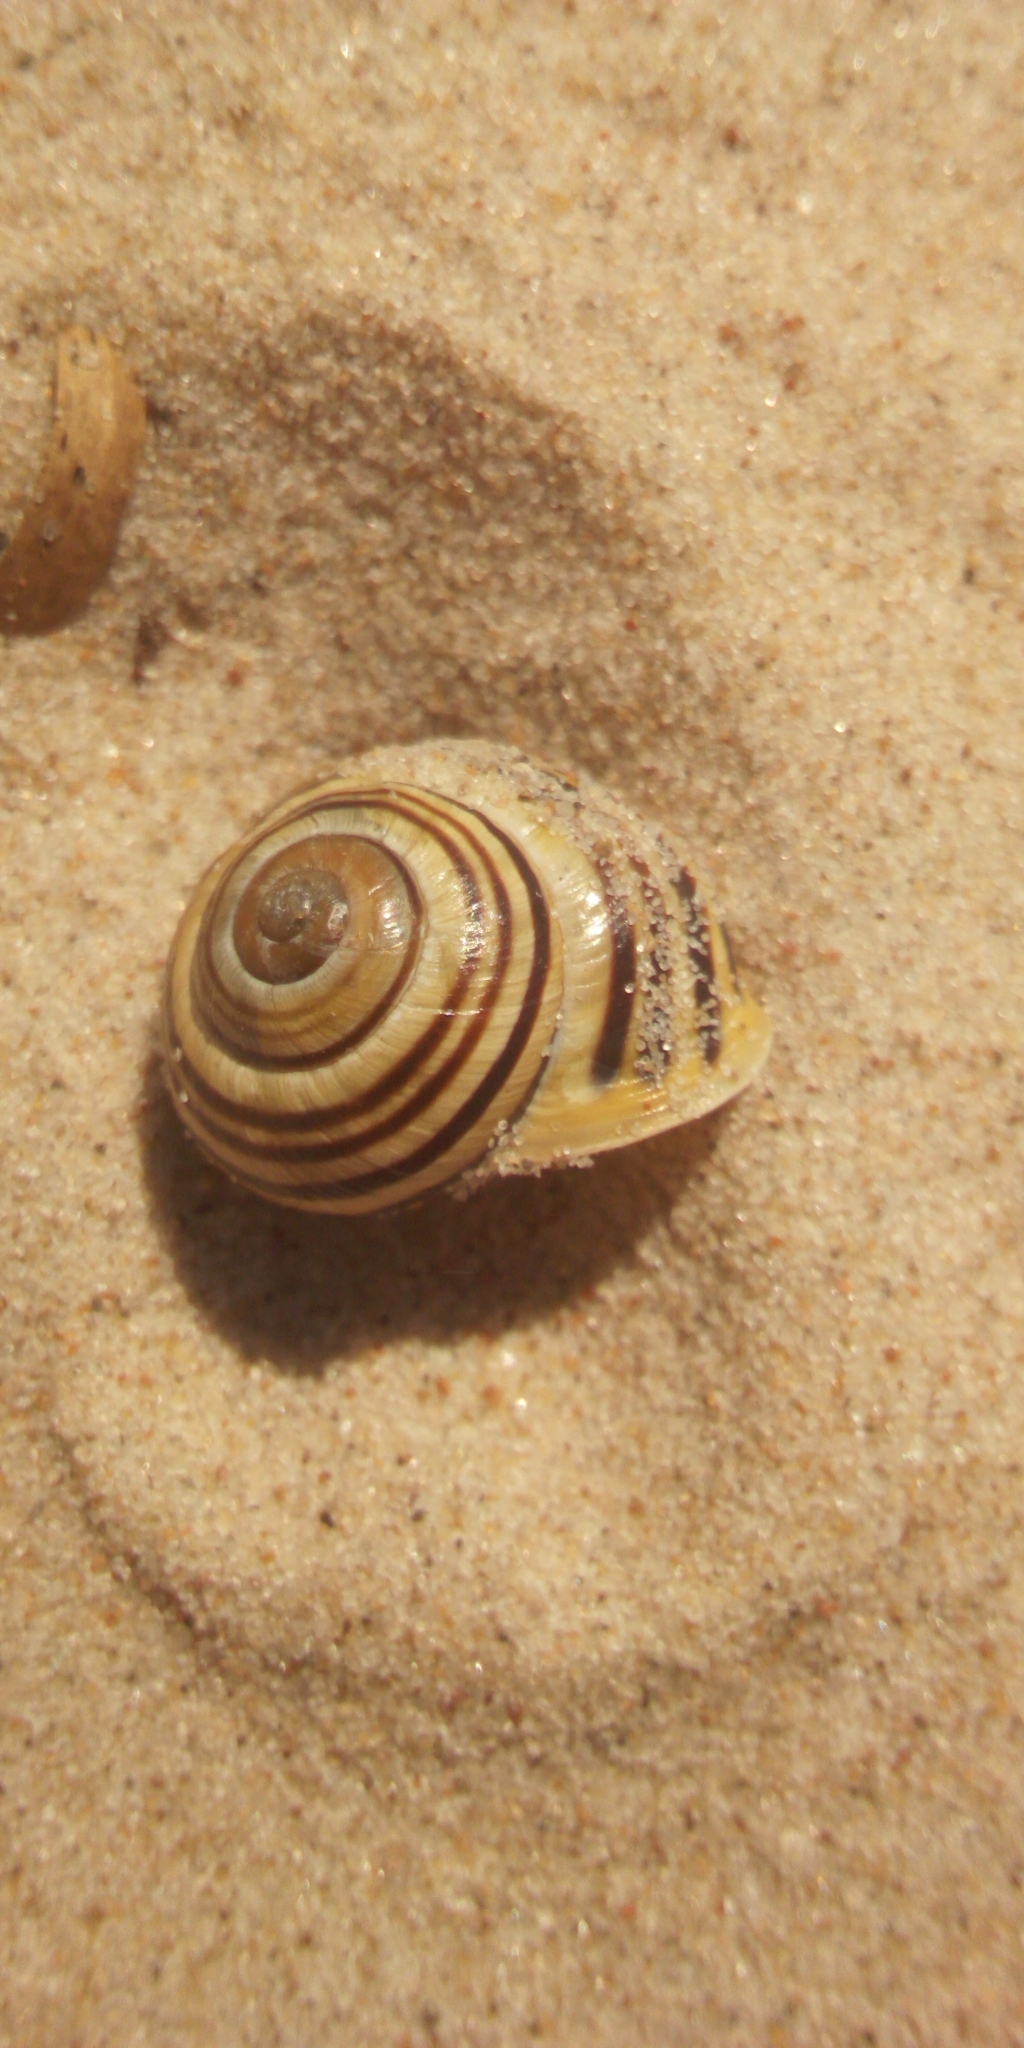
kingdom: Animalia
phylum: Mollusca
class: Gastropoda
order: Stylommatophora
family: Helicidae
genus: Cepaea
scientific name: Cepaea hortensis
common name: White-lip gardensnail
